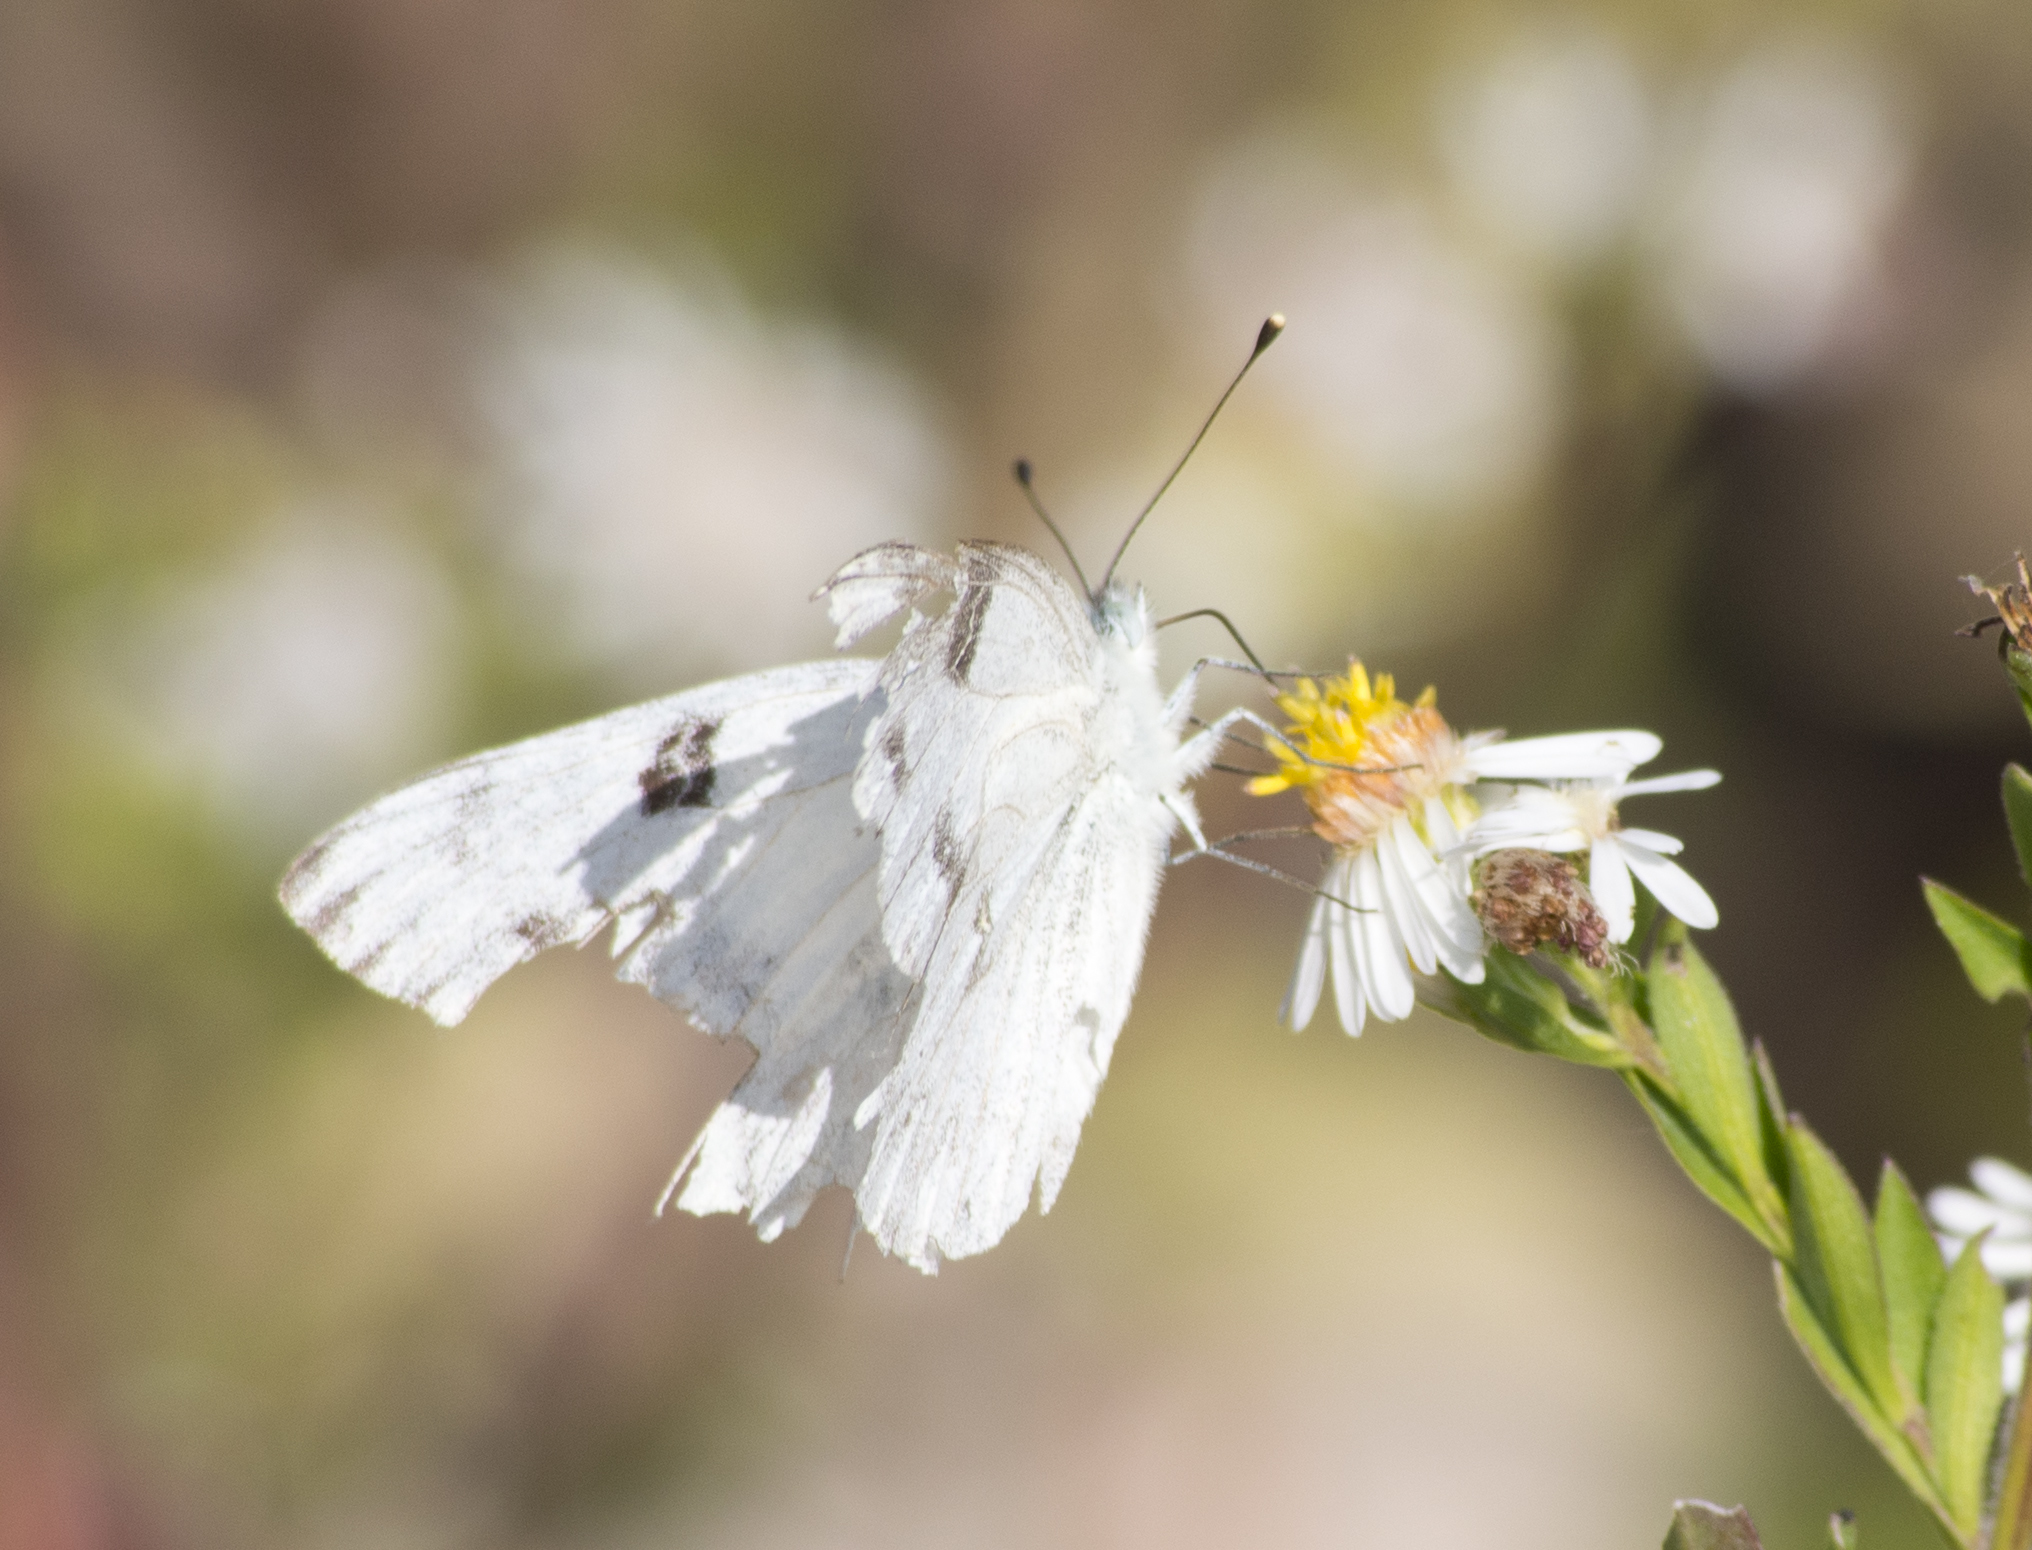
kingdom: Animalia
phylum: Arthropoda
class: Insecta
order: Lepidoptera
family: Pieridae
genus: Pontia
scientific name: Pontia protodice
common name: Checkered white
